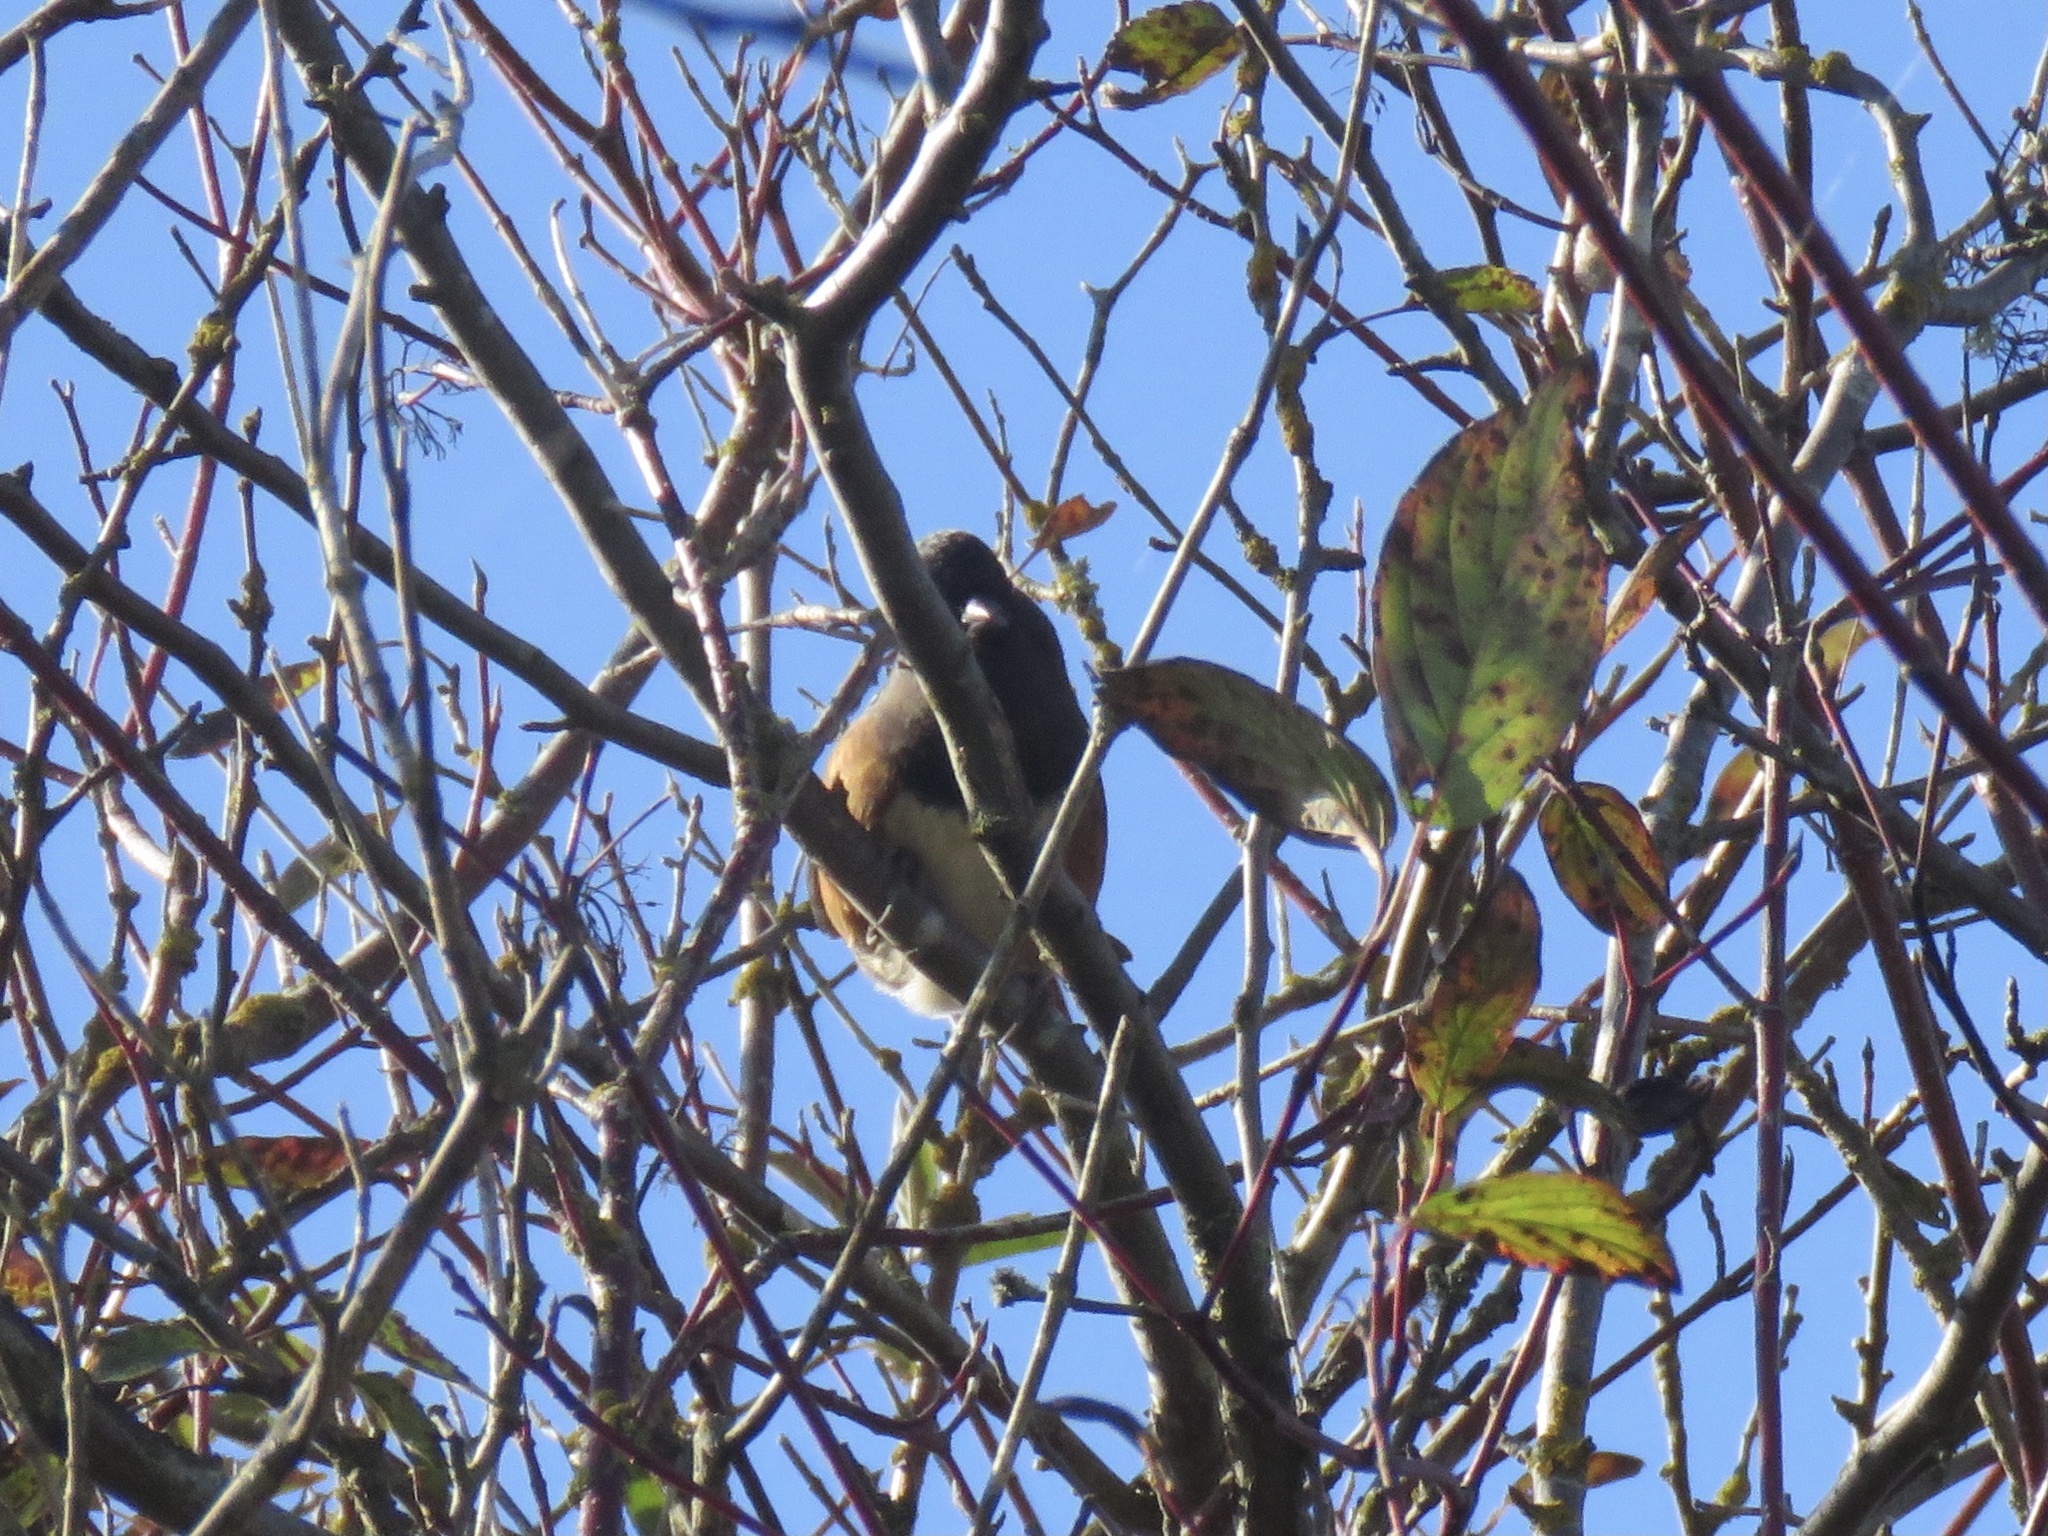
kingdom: Animalia
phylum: Chordata
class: Aves
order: Passeriformes
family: Passerellidae
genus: Pipilo
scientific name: Pipilo maculatus
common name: Spotted towhee
